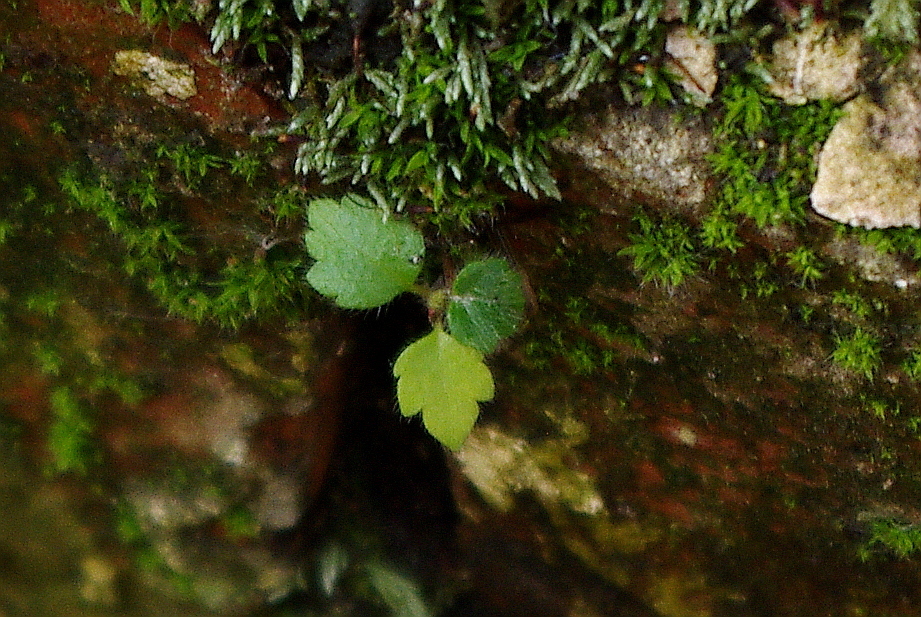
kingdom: Plantae
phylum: Tracheophyta
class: Magnoliopsida
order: Fagales
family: Betulaceae
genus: Betula
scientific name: Betula pubescens
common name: Downy birch
